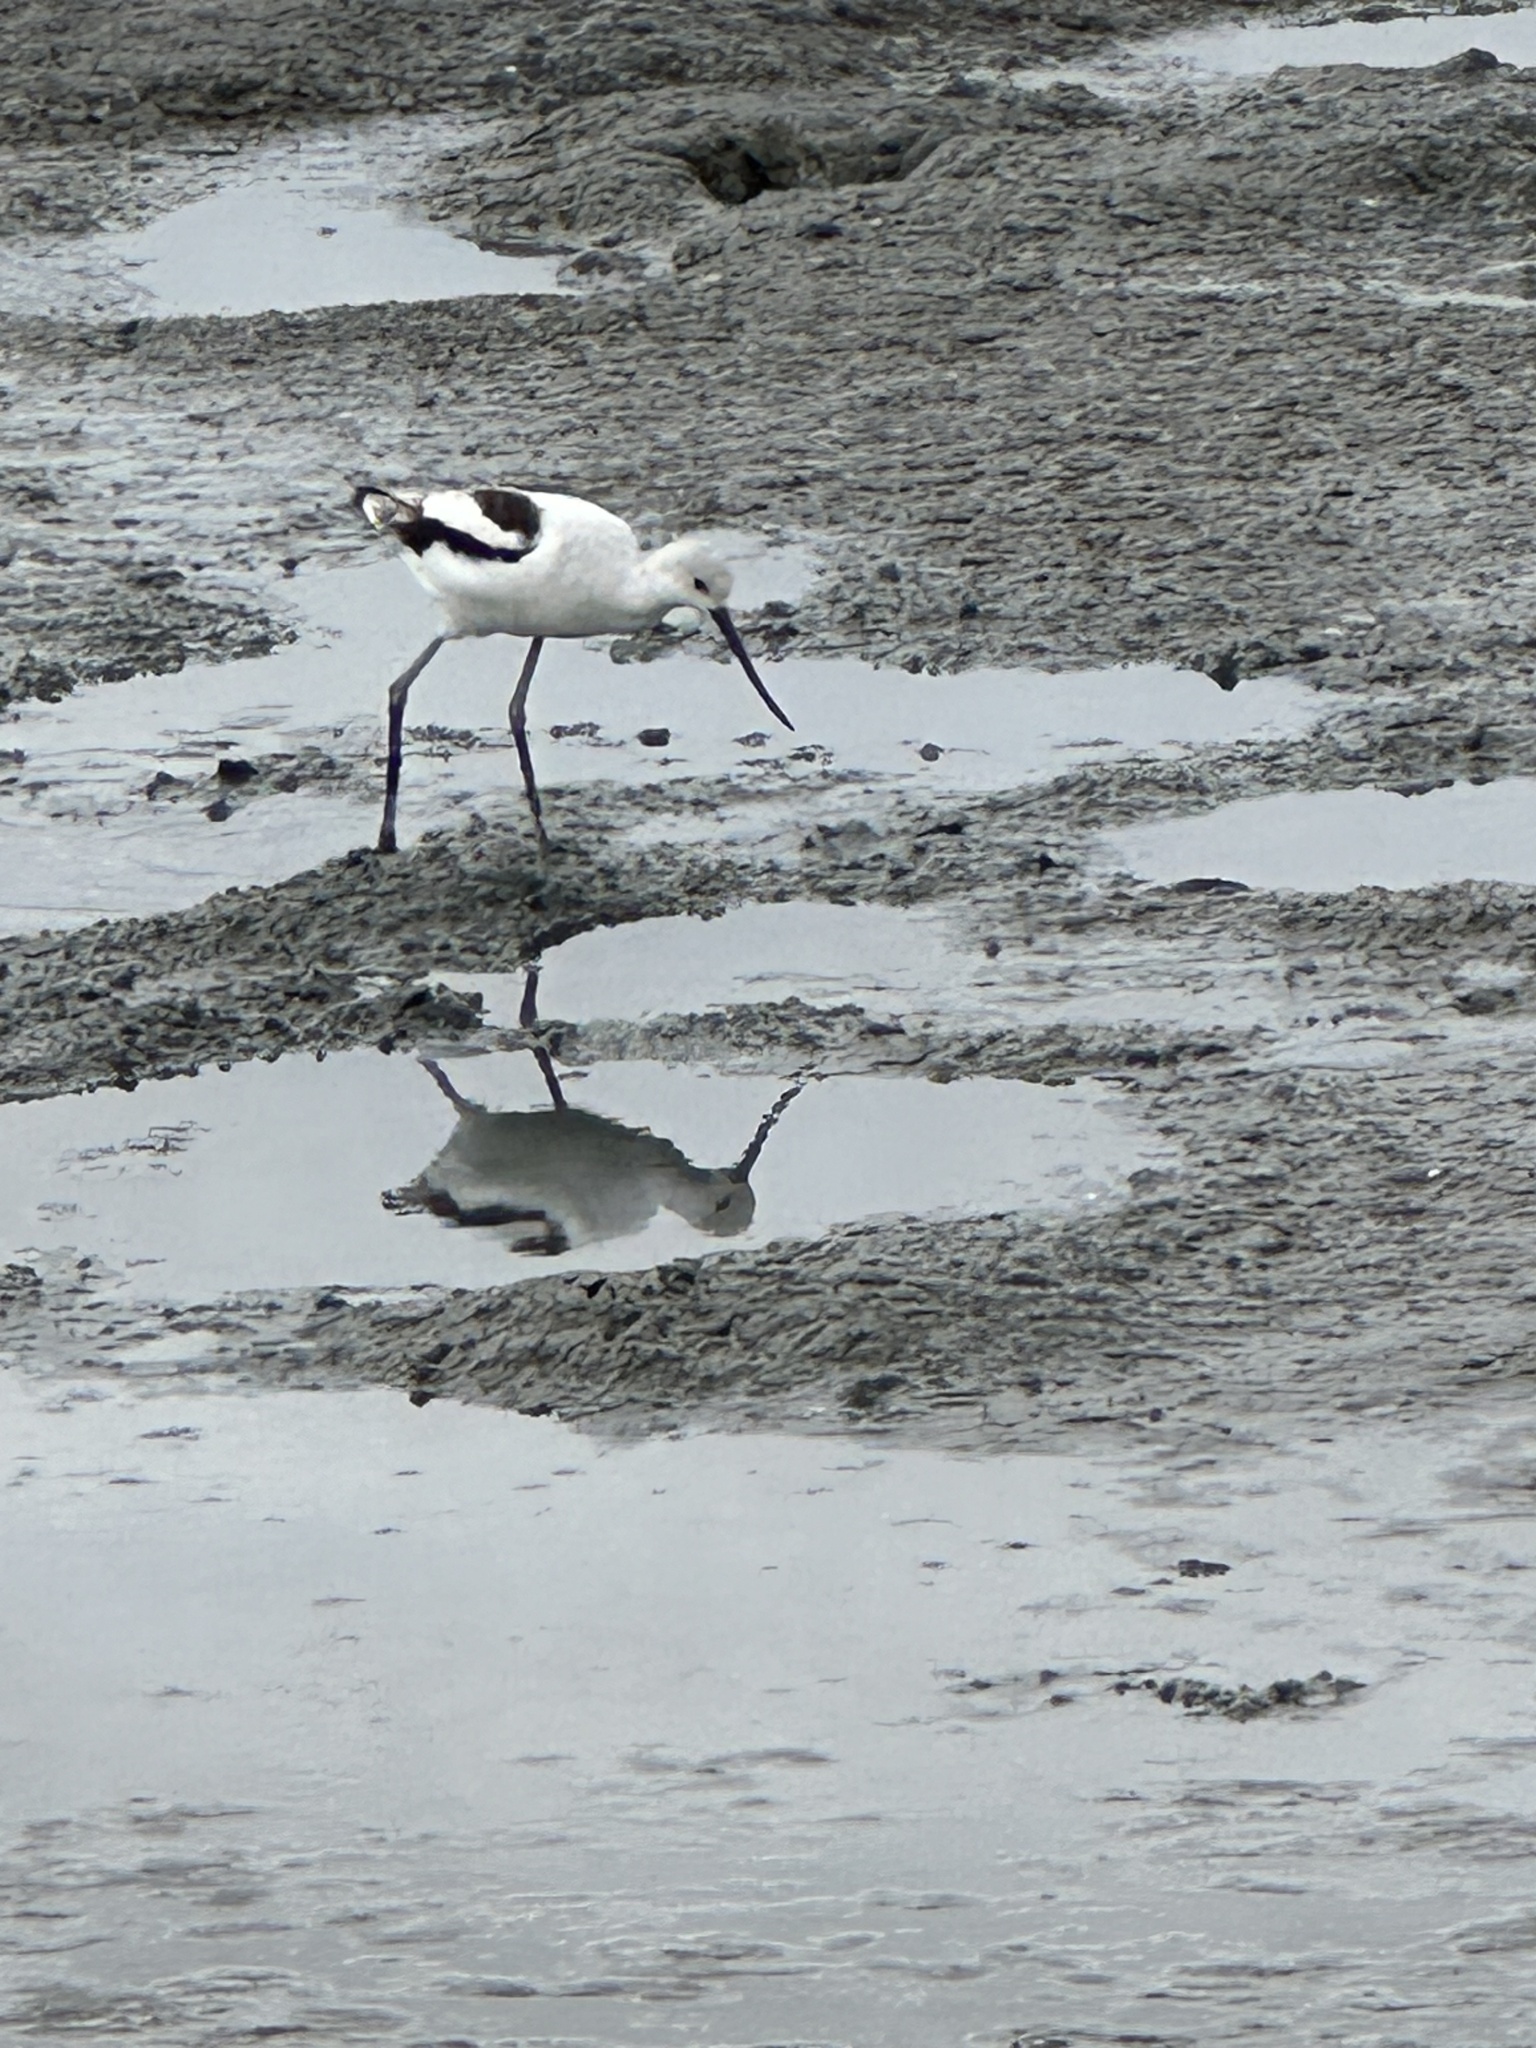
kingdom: Animalia
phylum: Chordata
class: Aves
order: Charadriiformes
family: Recurvirostridae
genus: Recurvirostra
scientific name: Recurvirostra americana
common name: American avocet
